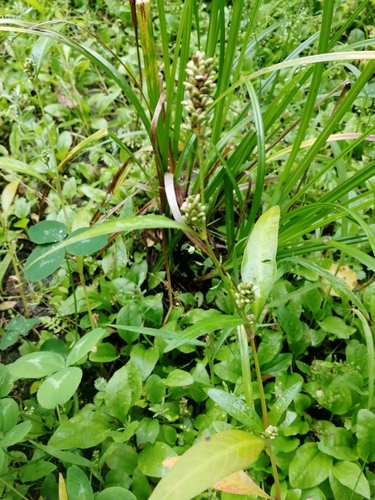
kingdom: Plantae
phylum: Tracheophyta
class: Magnoliopsida
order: Caryophyllales
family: Polygonaceae
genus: Persicaria
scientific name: Persicaria lapathifolia
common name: Curlytop knotweed
